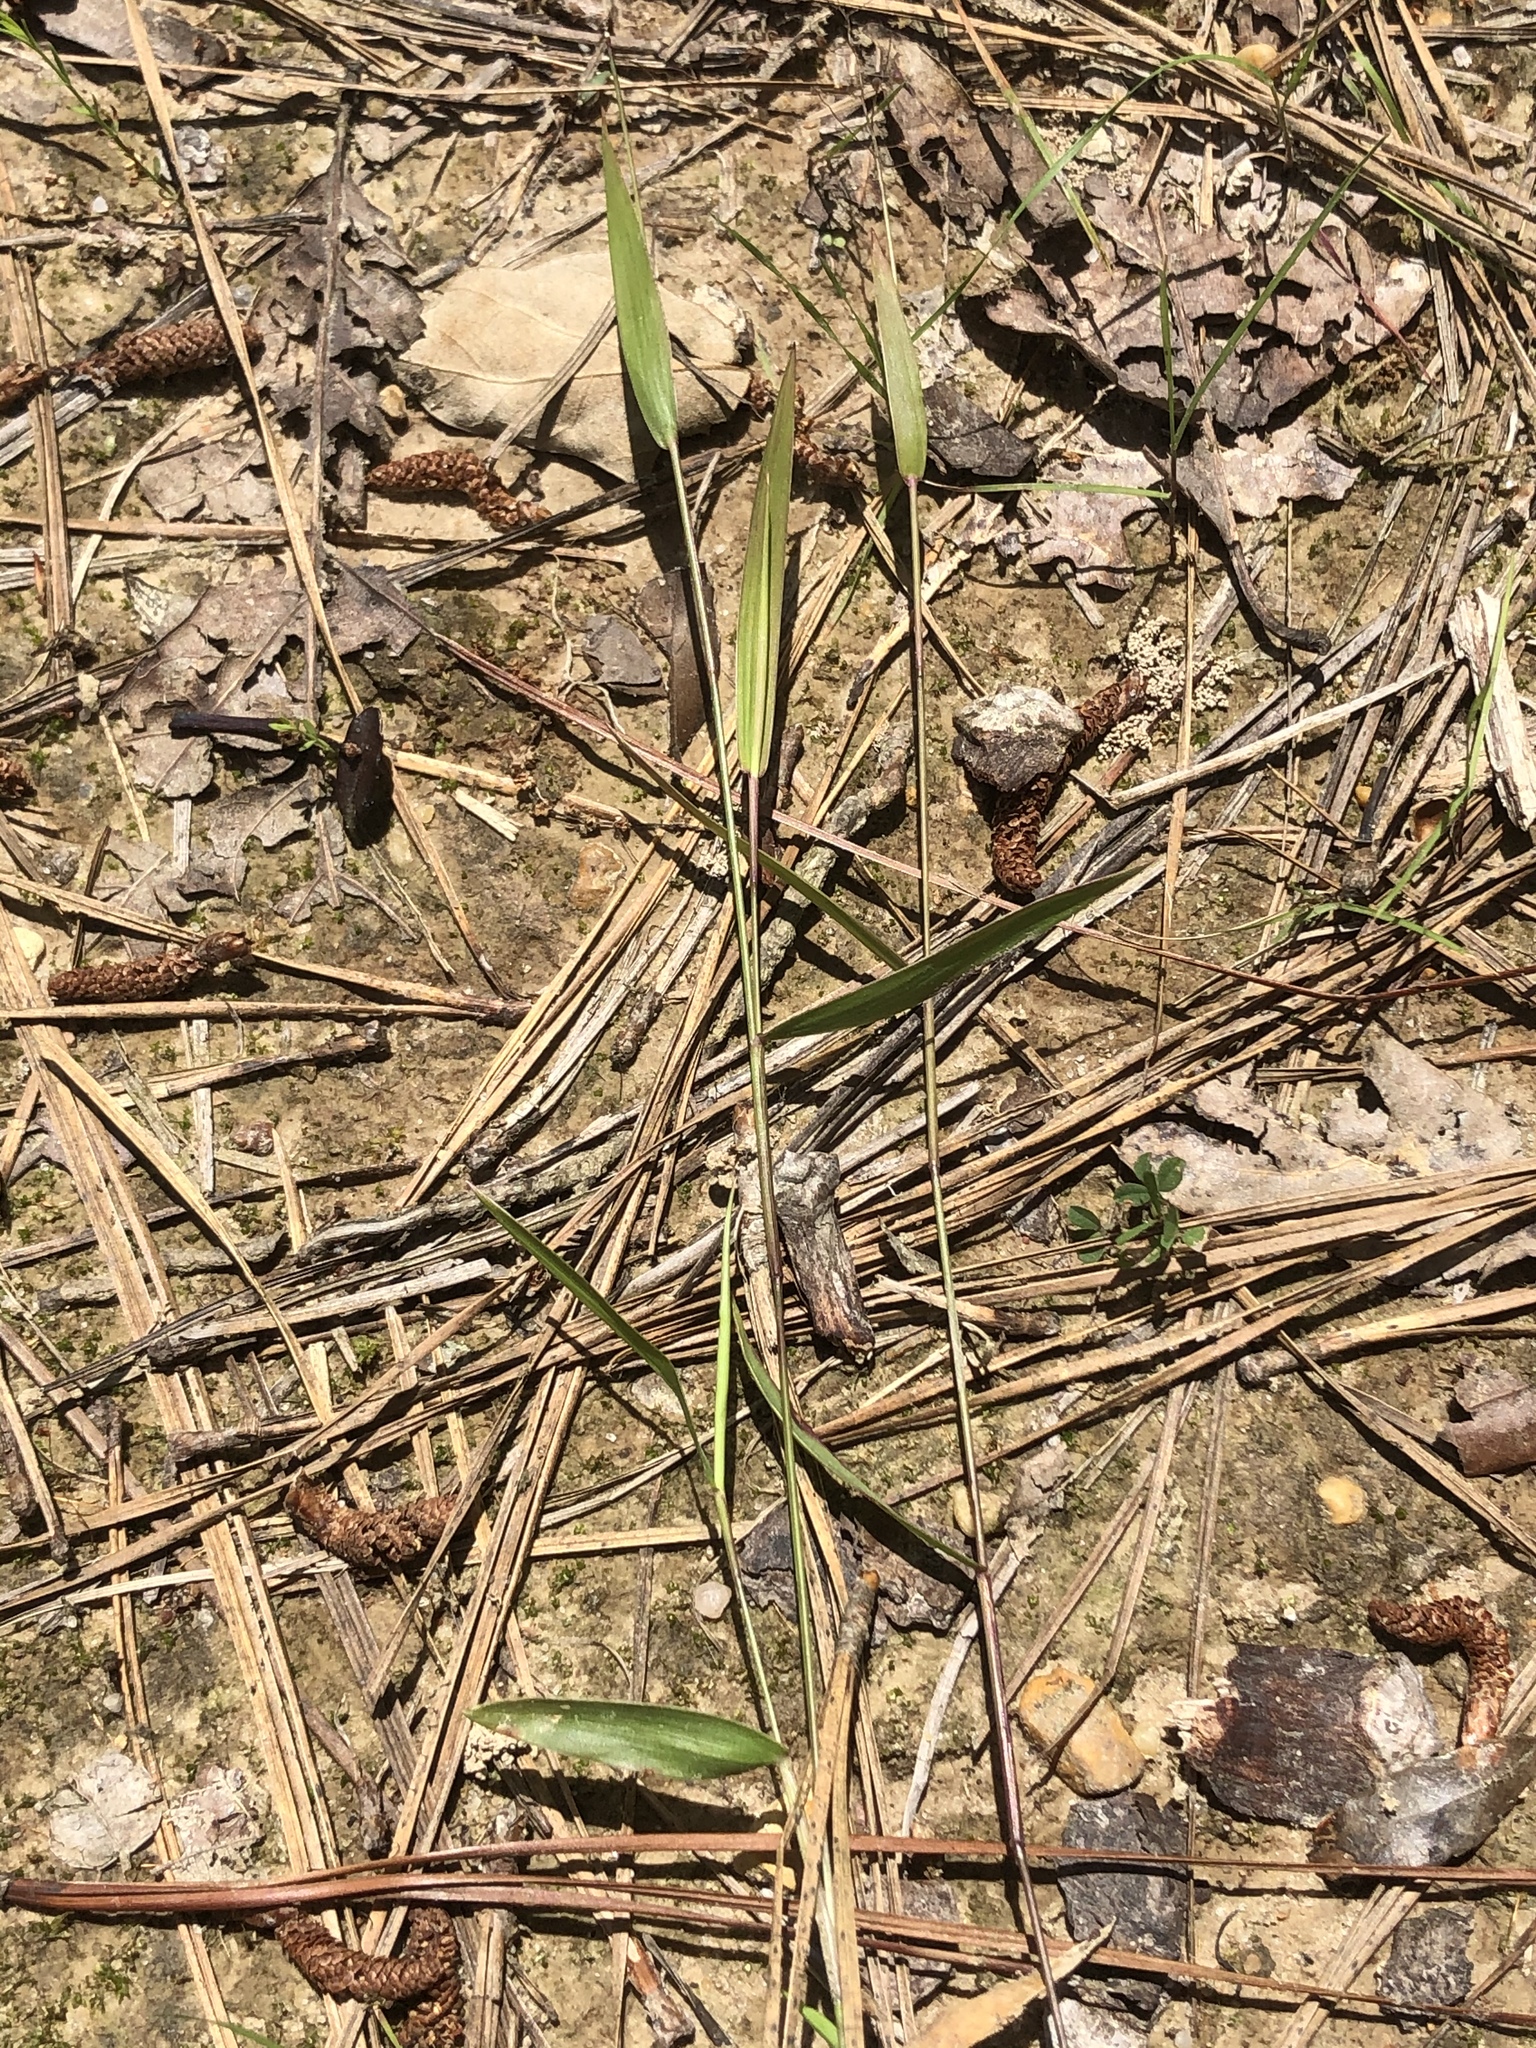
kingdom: Plantae
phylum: Tracheophyta
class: Liliopsida
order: Poales
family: Poaceae
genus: Dichanthelium
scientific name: Dichanthelium tenue
